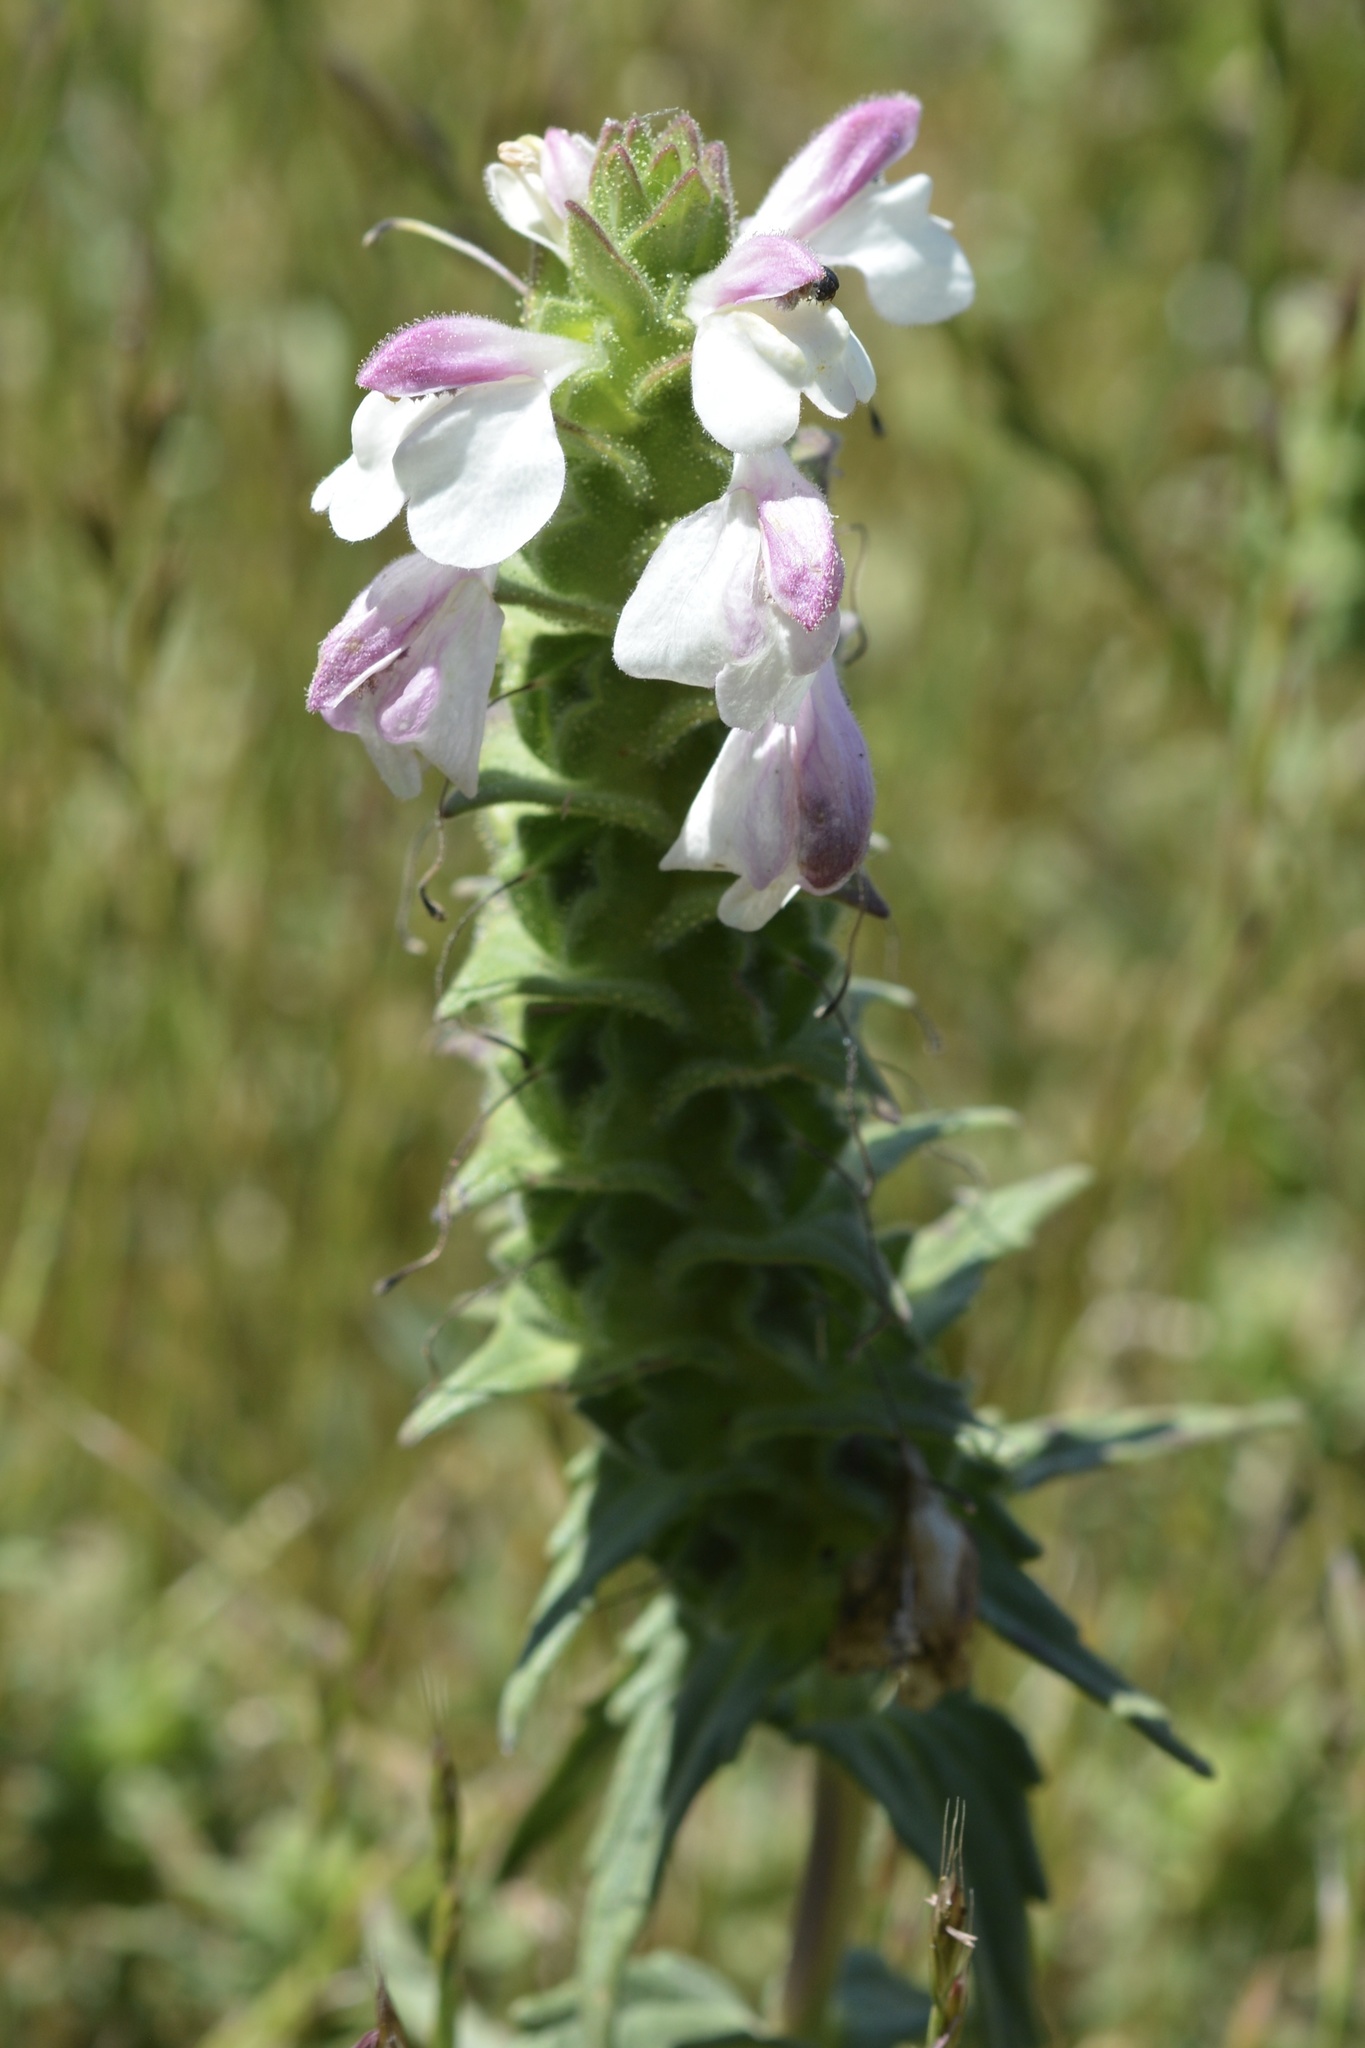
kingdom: Plantae
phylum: Tracheophyta
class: Magnoliopsida
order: Lamiales
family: Orobanchaceae
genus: Bellardia
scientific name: Bellardia trixago
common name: Mediterranean lineseed
